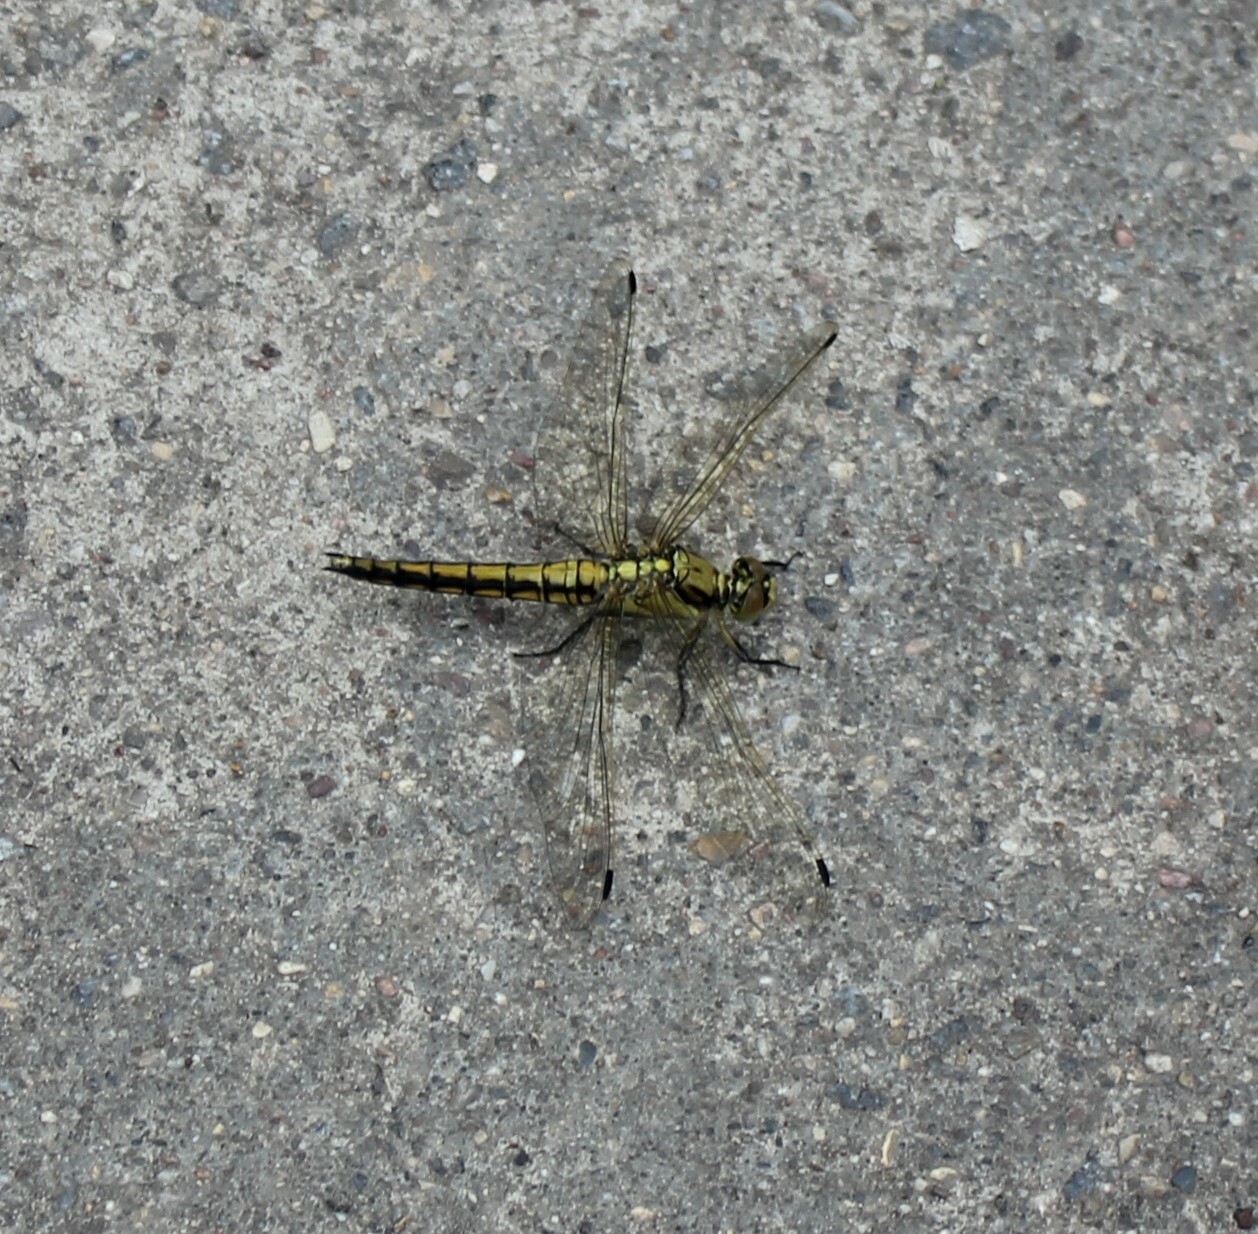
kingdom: Animalia
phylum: Arthropoda
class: Insecta
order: Odonata
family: Libellulidae
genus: Orthetrum
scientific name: Orthetrum cancellatum
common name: Black-tailed skimmer
